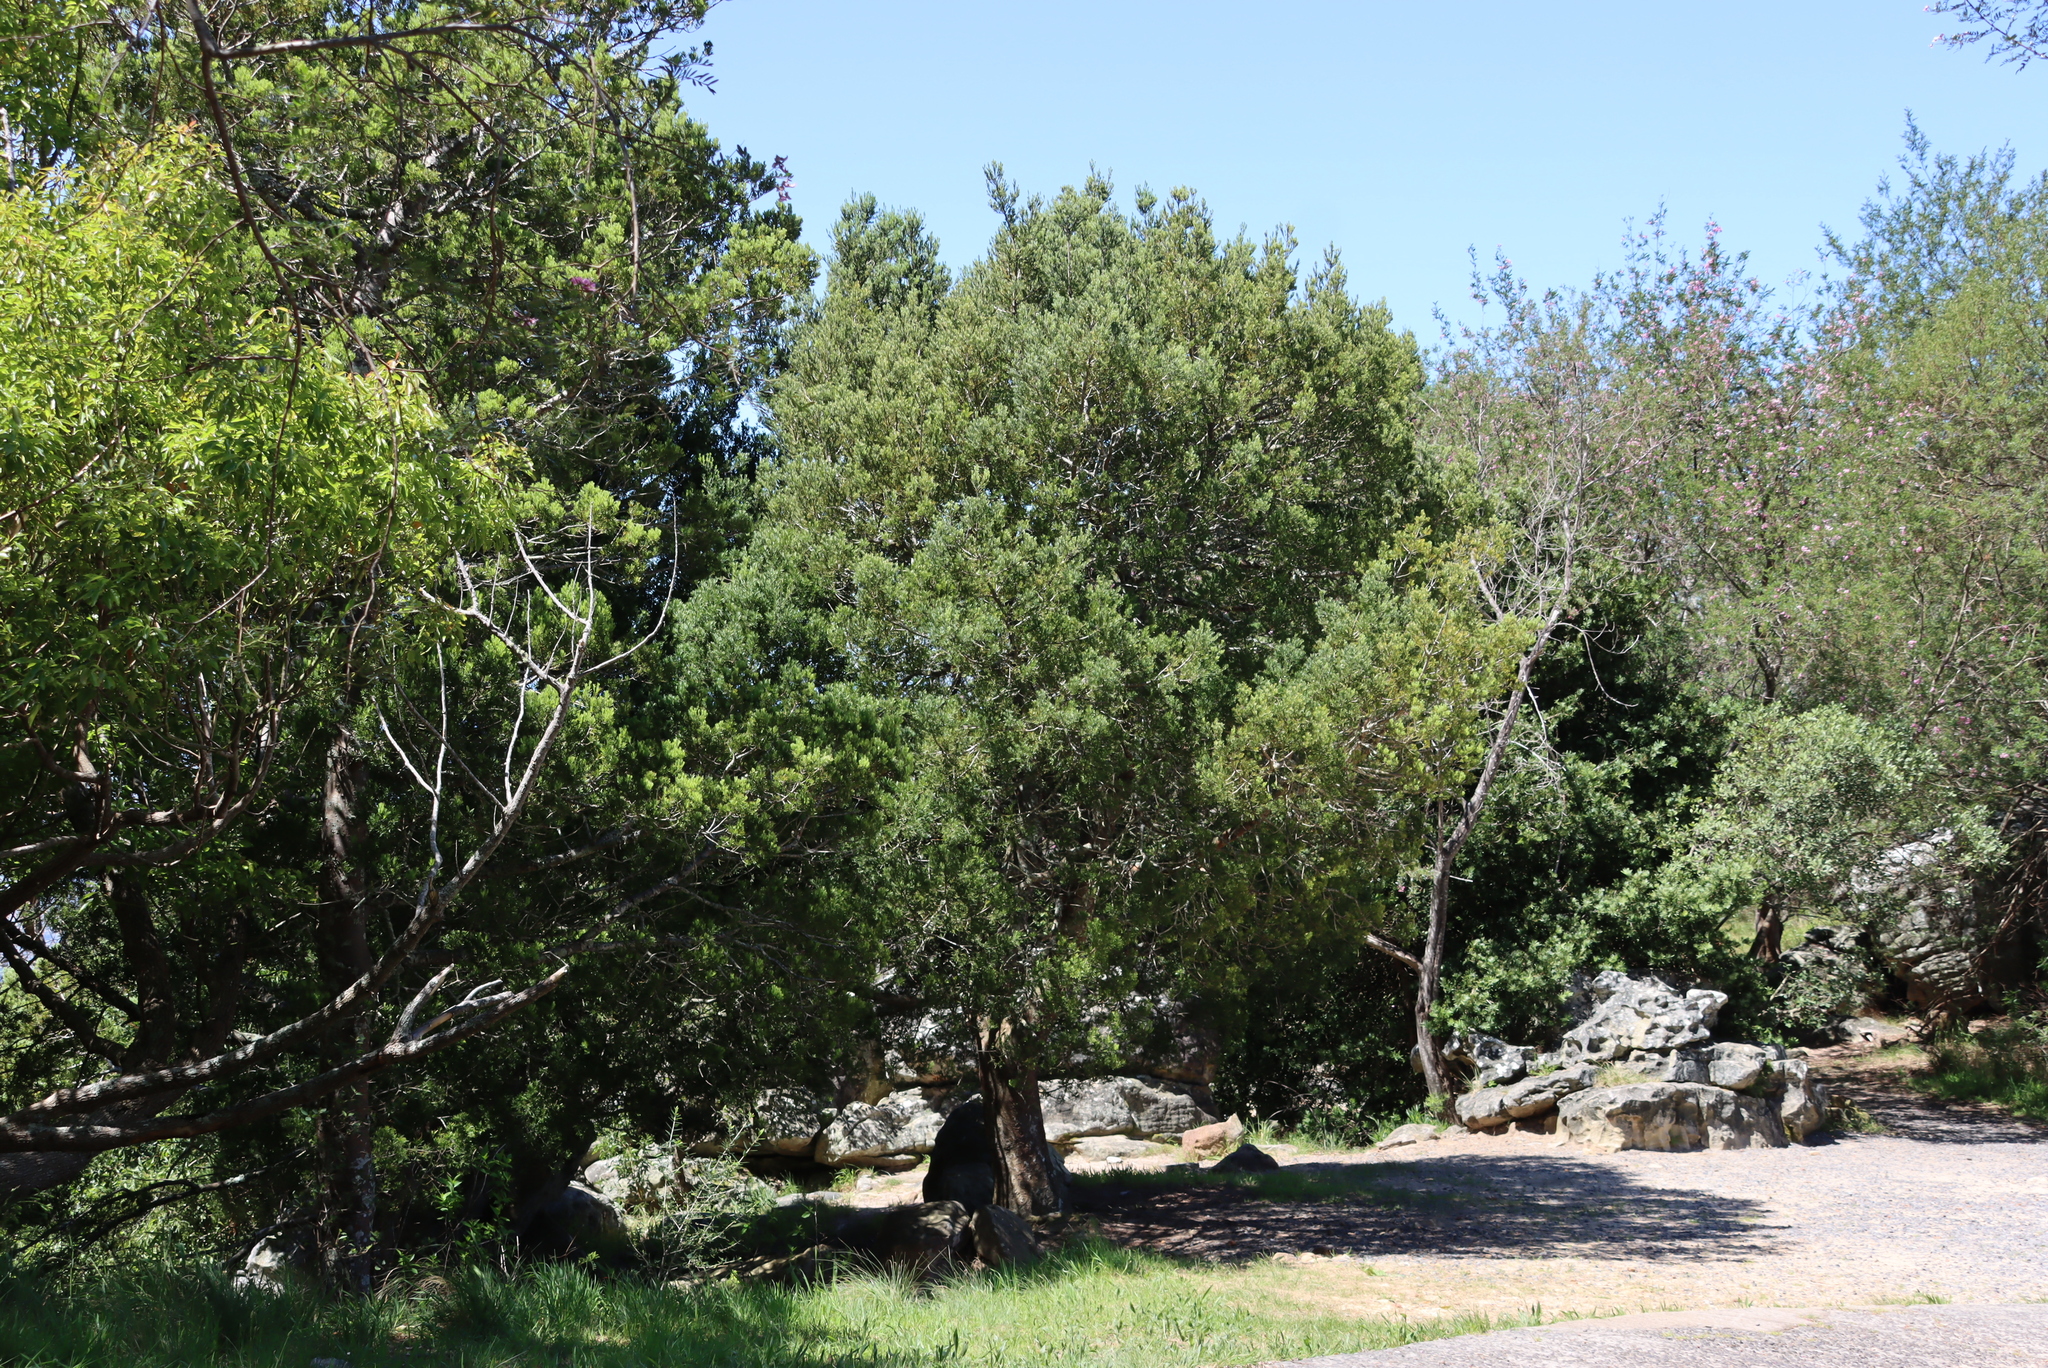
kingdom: Plantae
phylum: Tracheophyta
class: Pinopsida
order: Pinales
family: Podocarpaceae
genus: Afrocarpus
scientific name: Afrocarpus falcatus
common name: Bastard yellowwood
